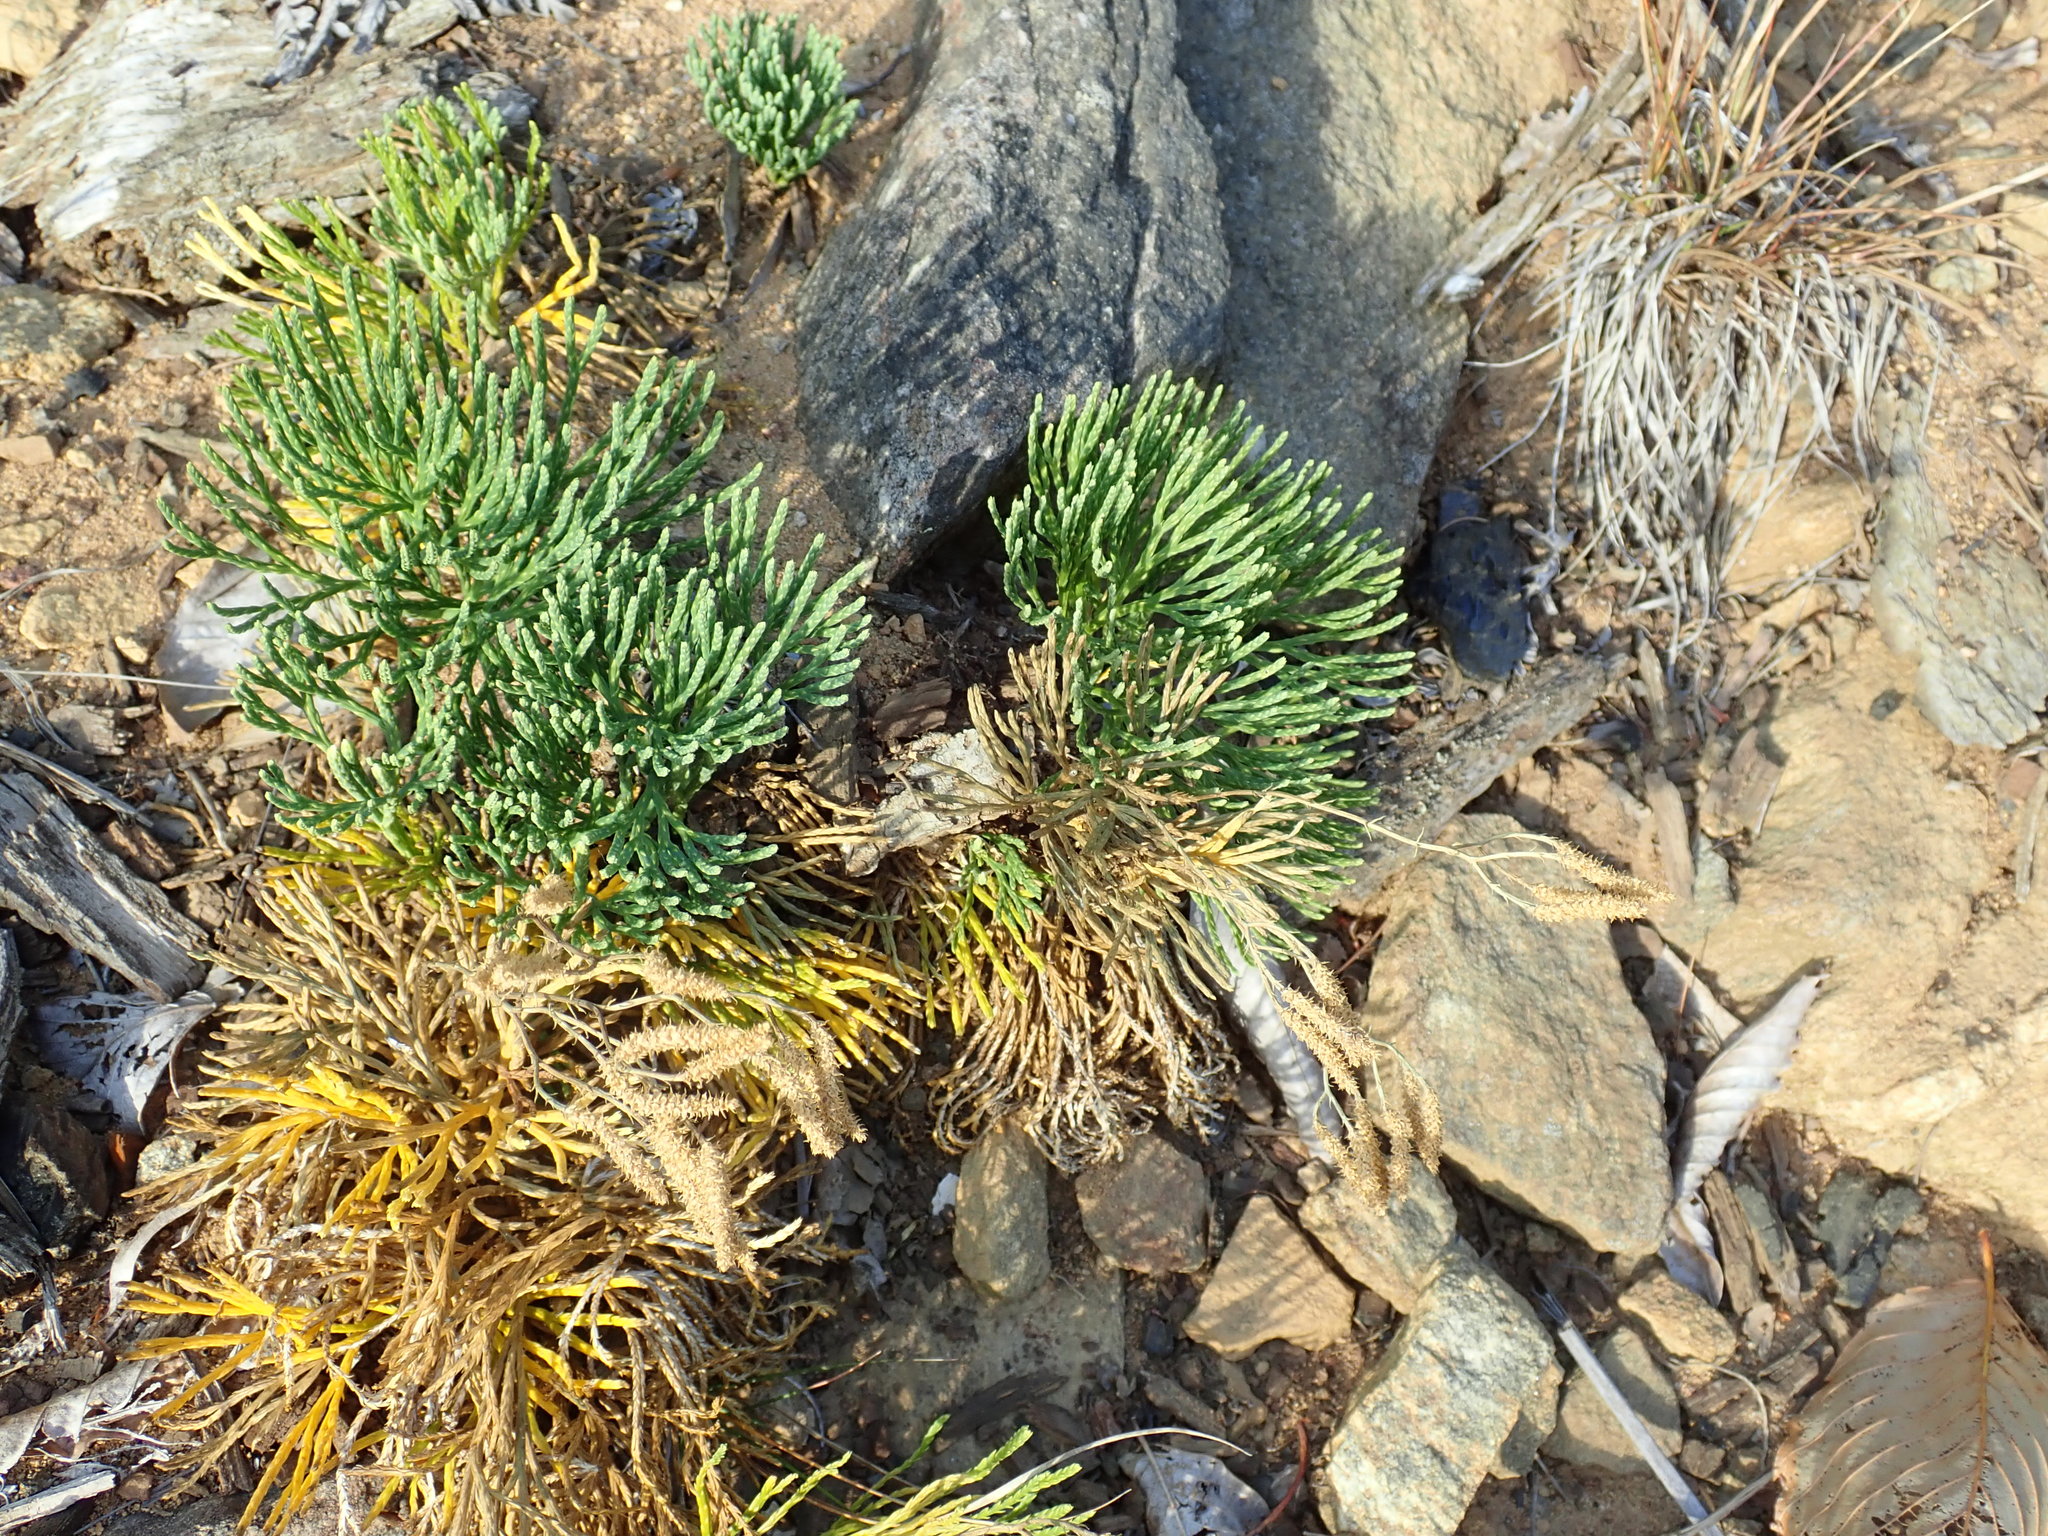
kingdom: Plantae
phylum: Tracheophyta
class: Lycopodiopsida
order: Lycopodiales
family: Lycopodiaceae
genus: Diphasiastrum
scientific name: Diphasiastrum tristachyum
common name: Blue ground-cedar
